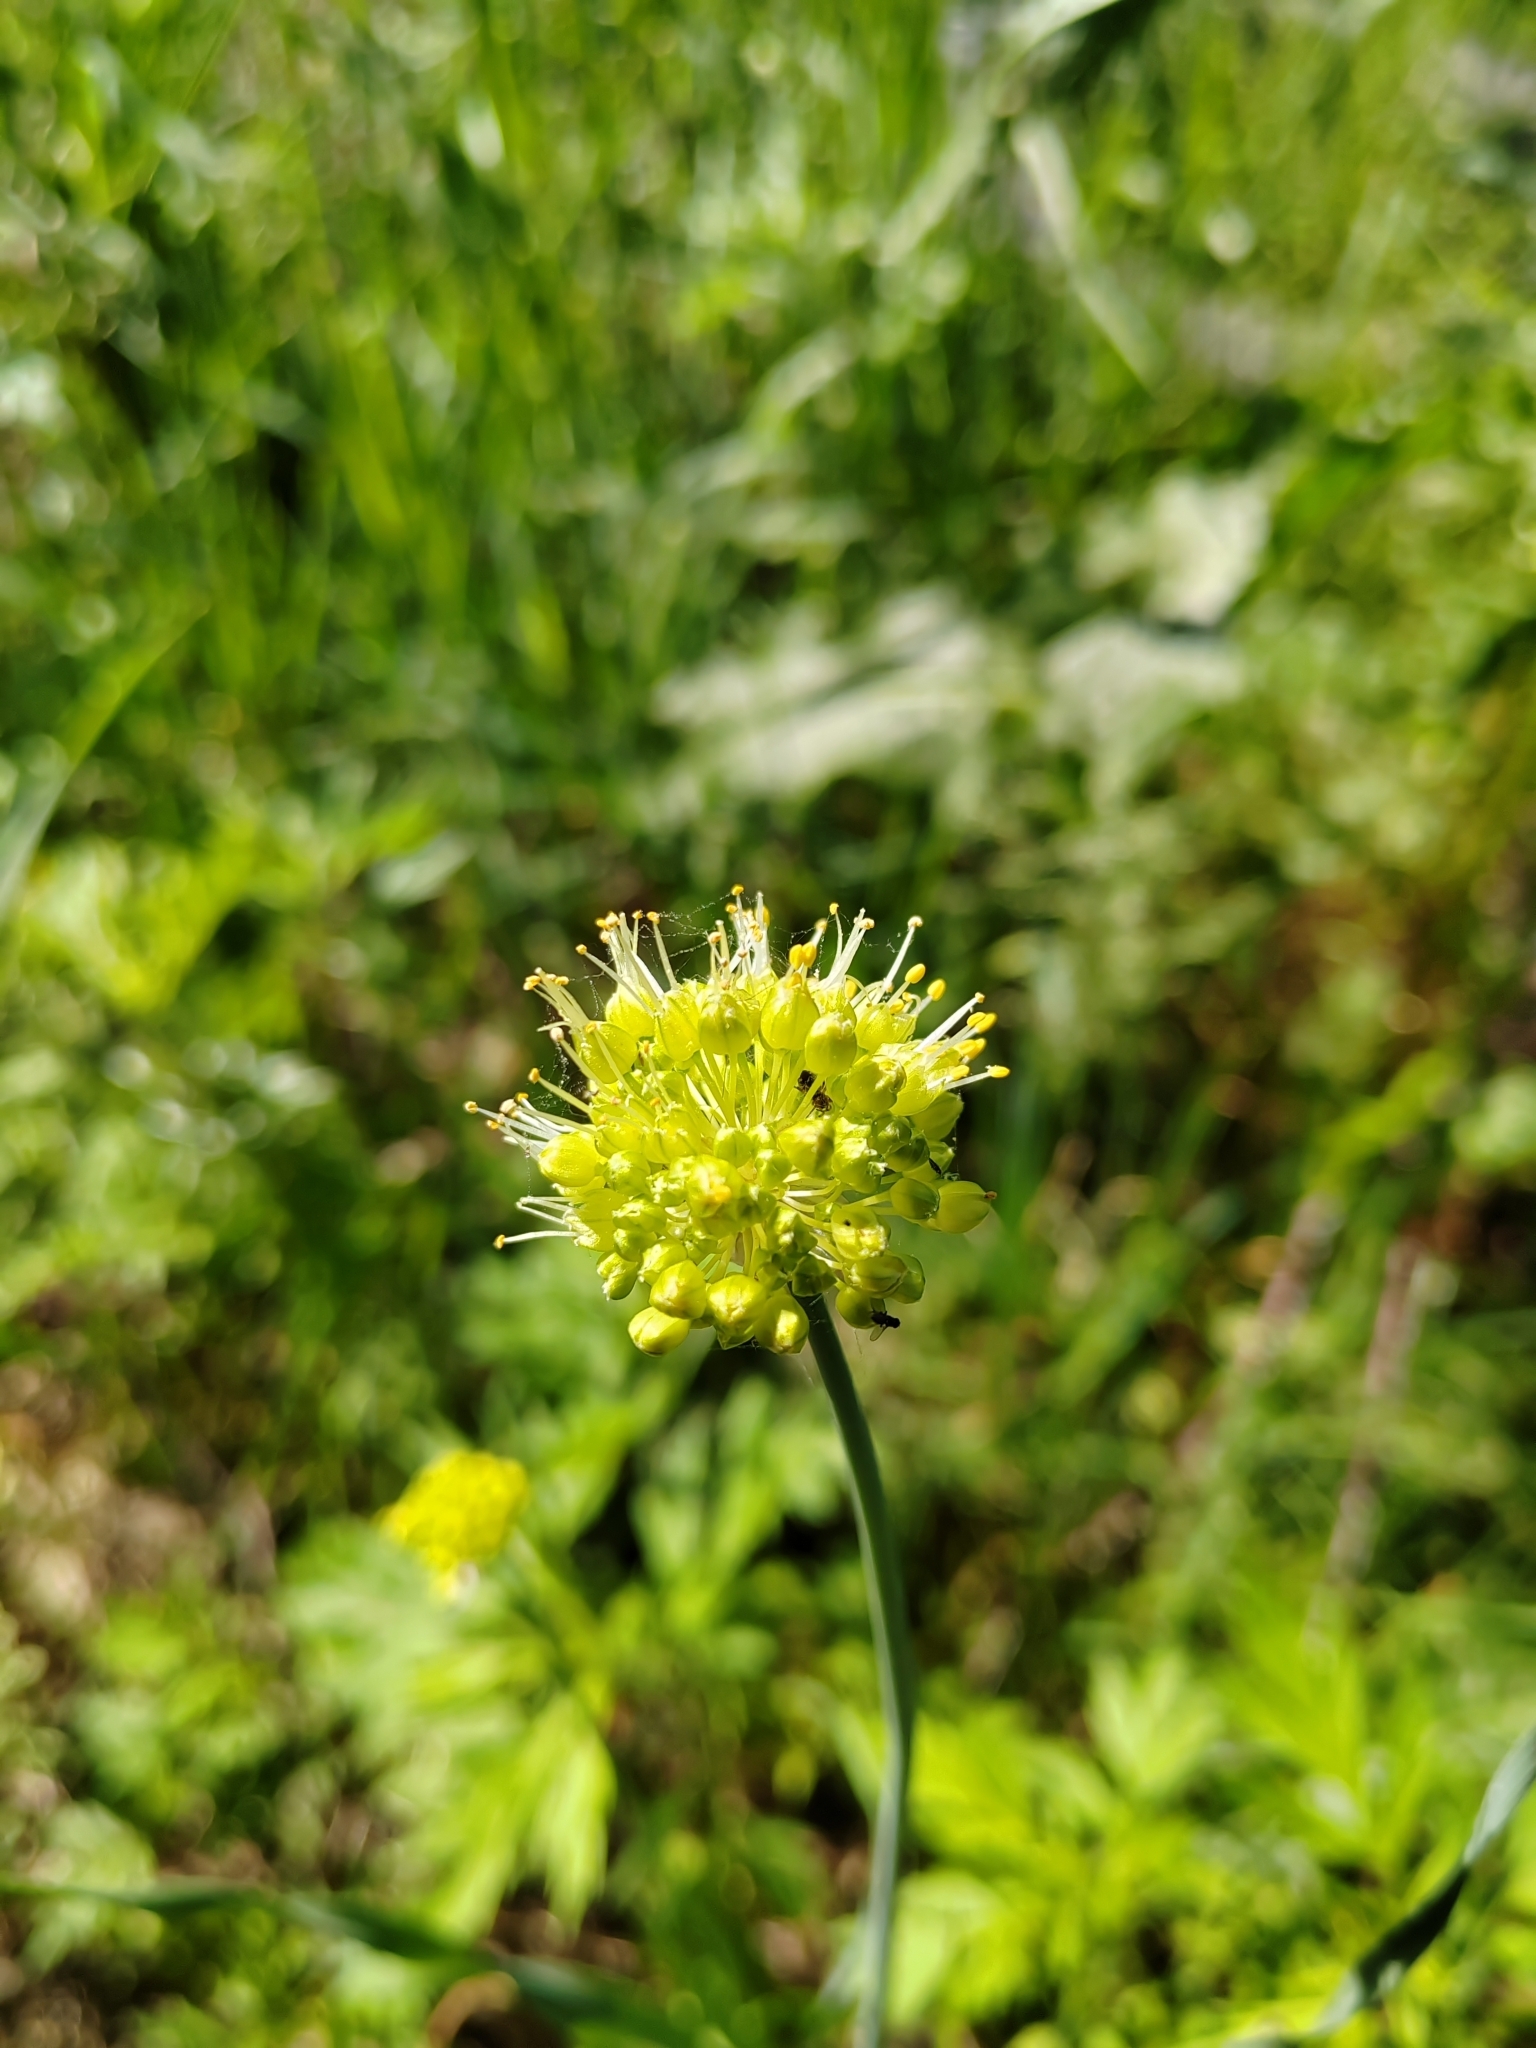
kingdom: Plantae
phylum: Tracheophyta
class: Liliopsida
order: Asparagales
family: Amaryllidaceae
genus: Allium
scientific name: Allium obliquum
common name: Oblique onion
